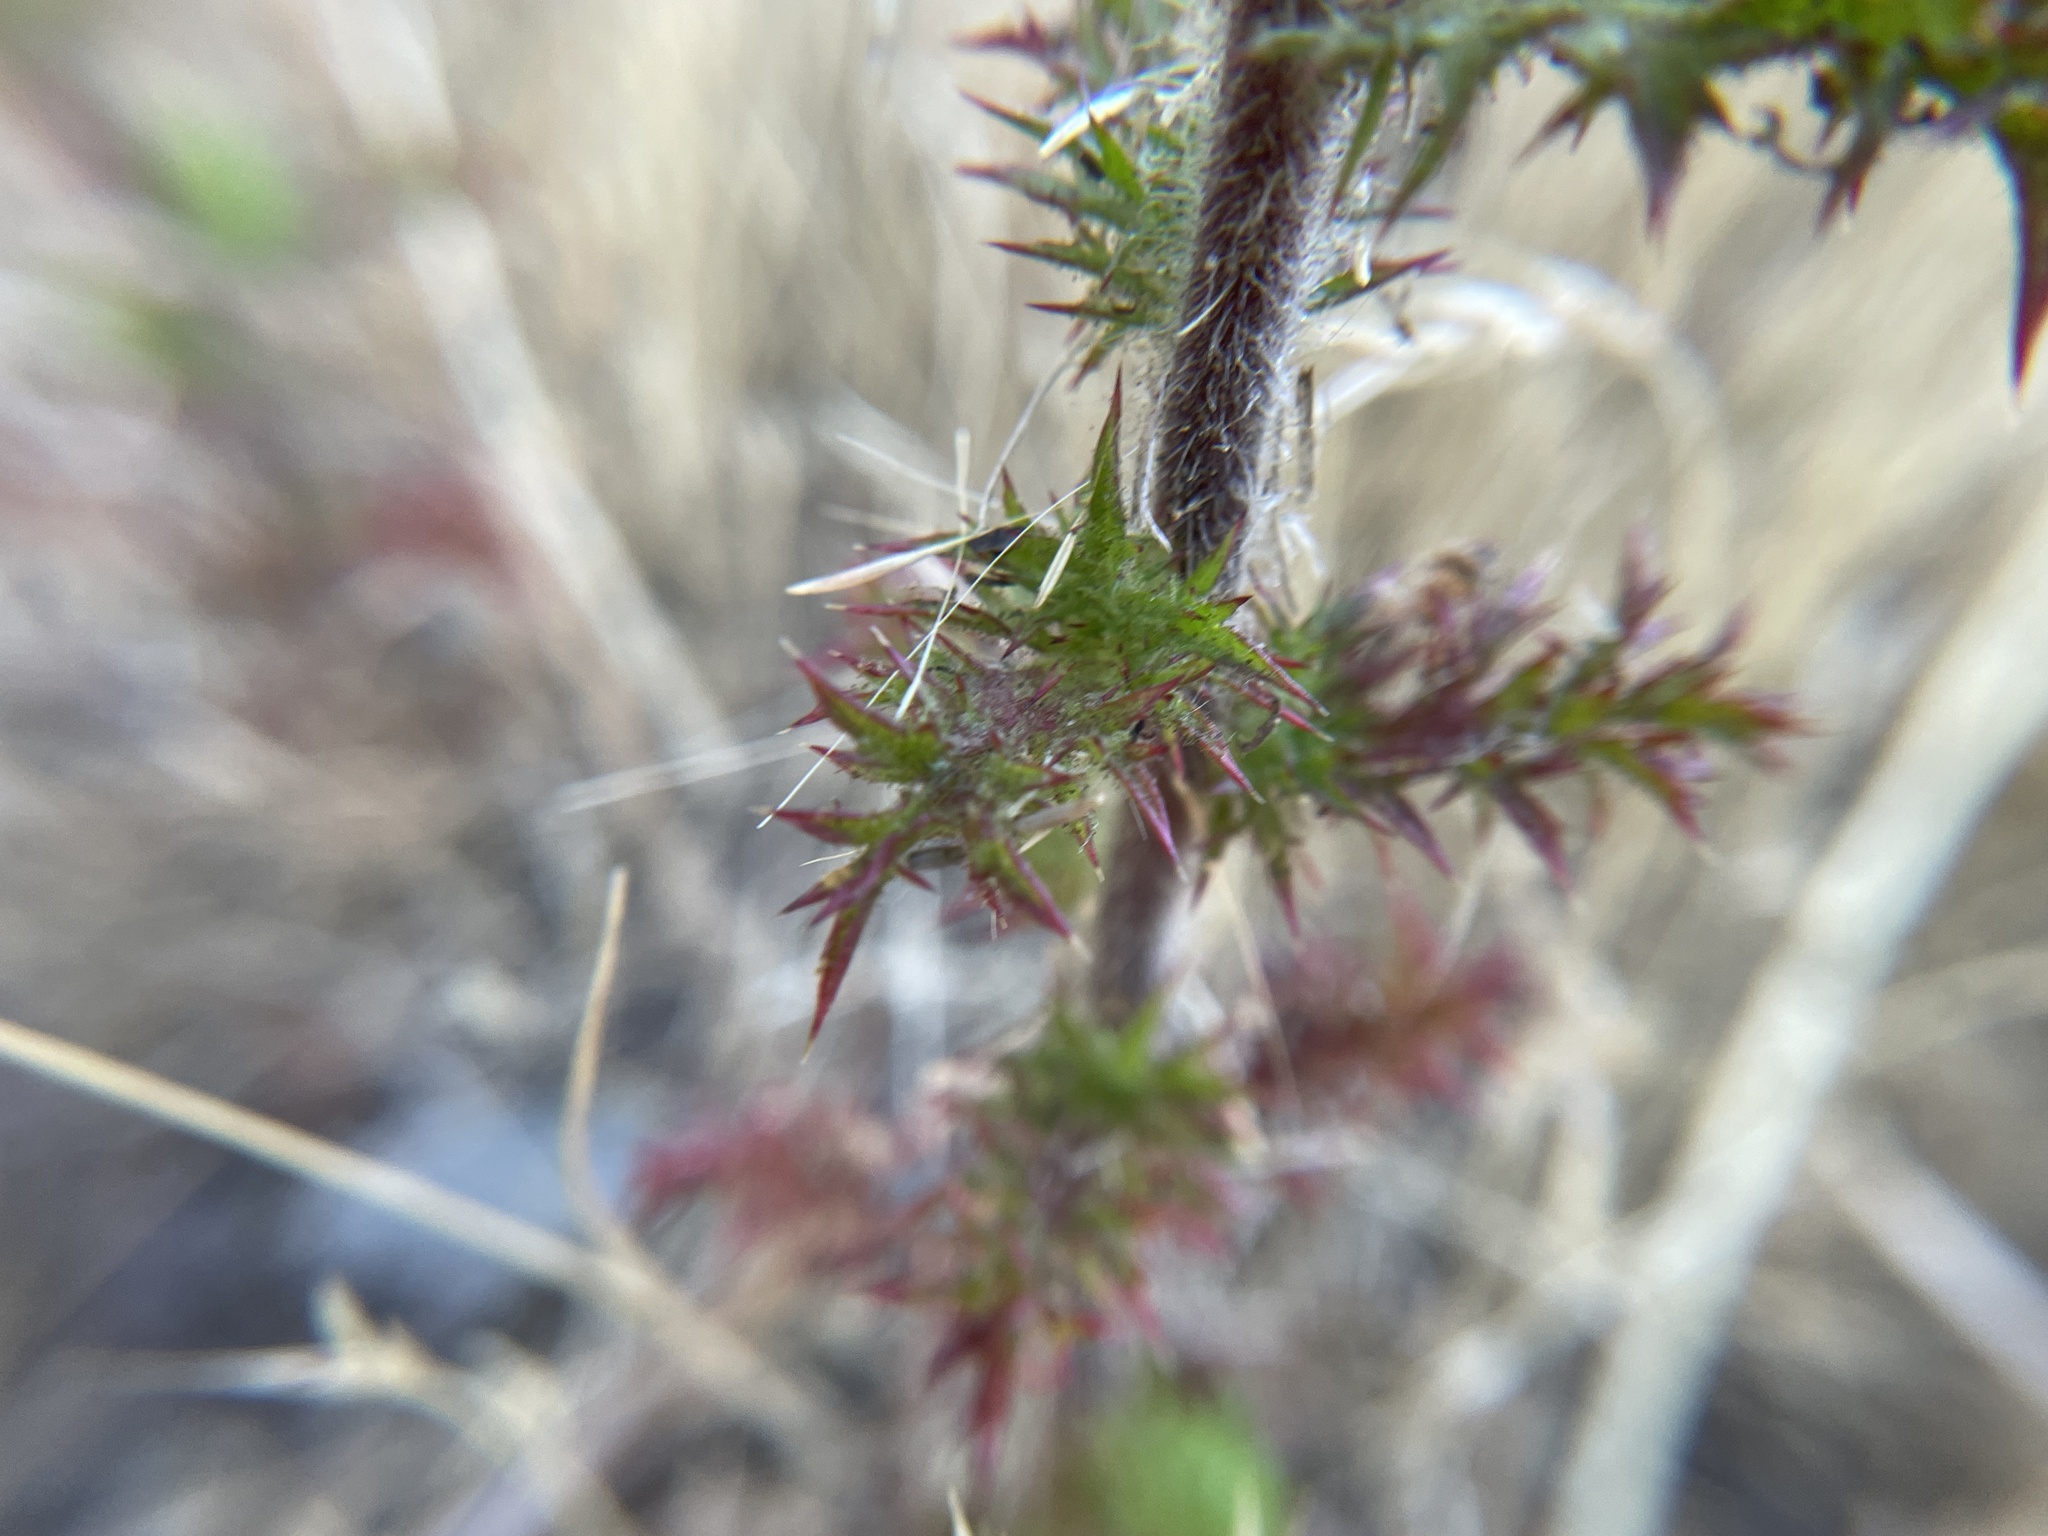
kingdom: Plantae
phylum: Tracheophyta
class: Magnoliopsida
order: Ericales
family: Polemoniaceae
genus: Navarretia
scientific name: Navarretia squarrosa
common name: Skunkweed
